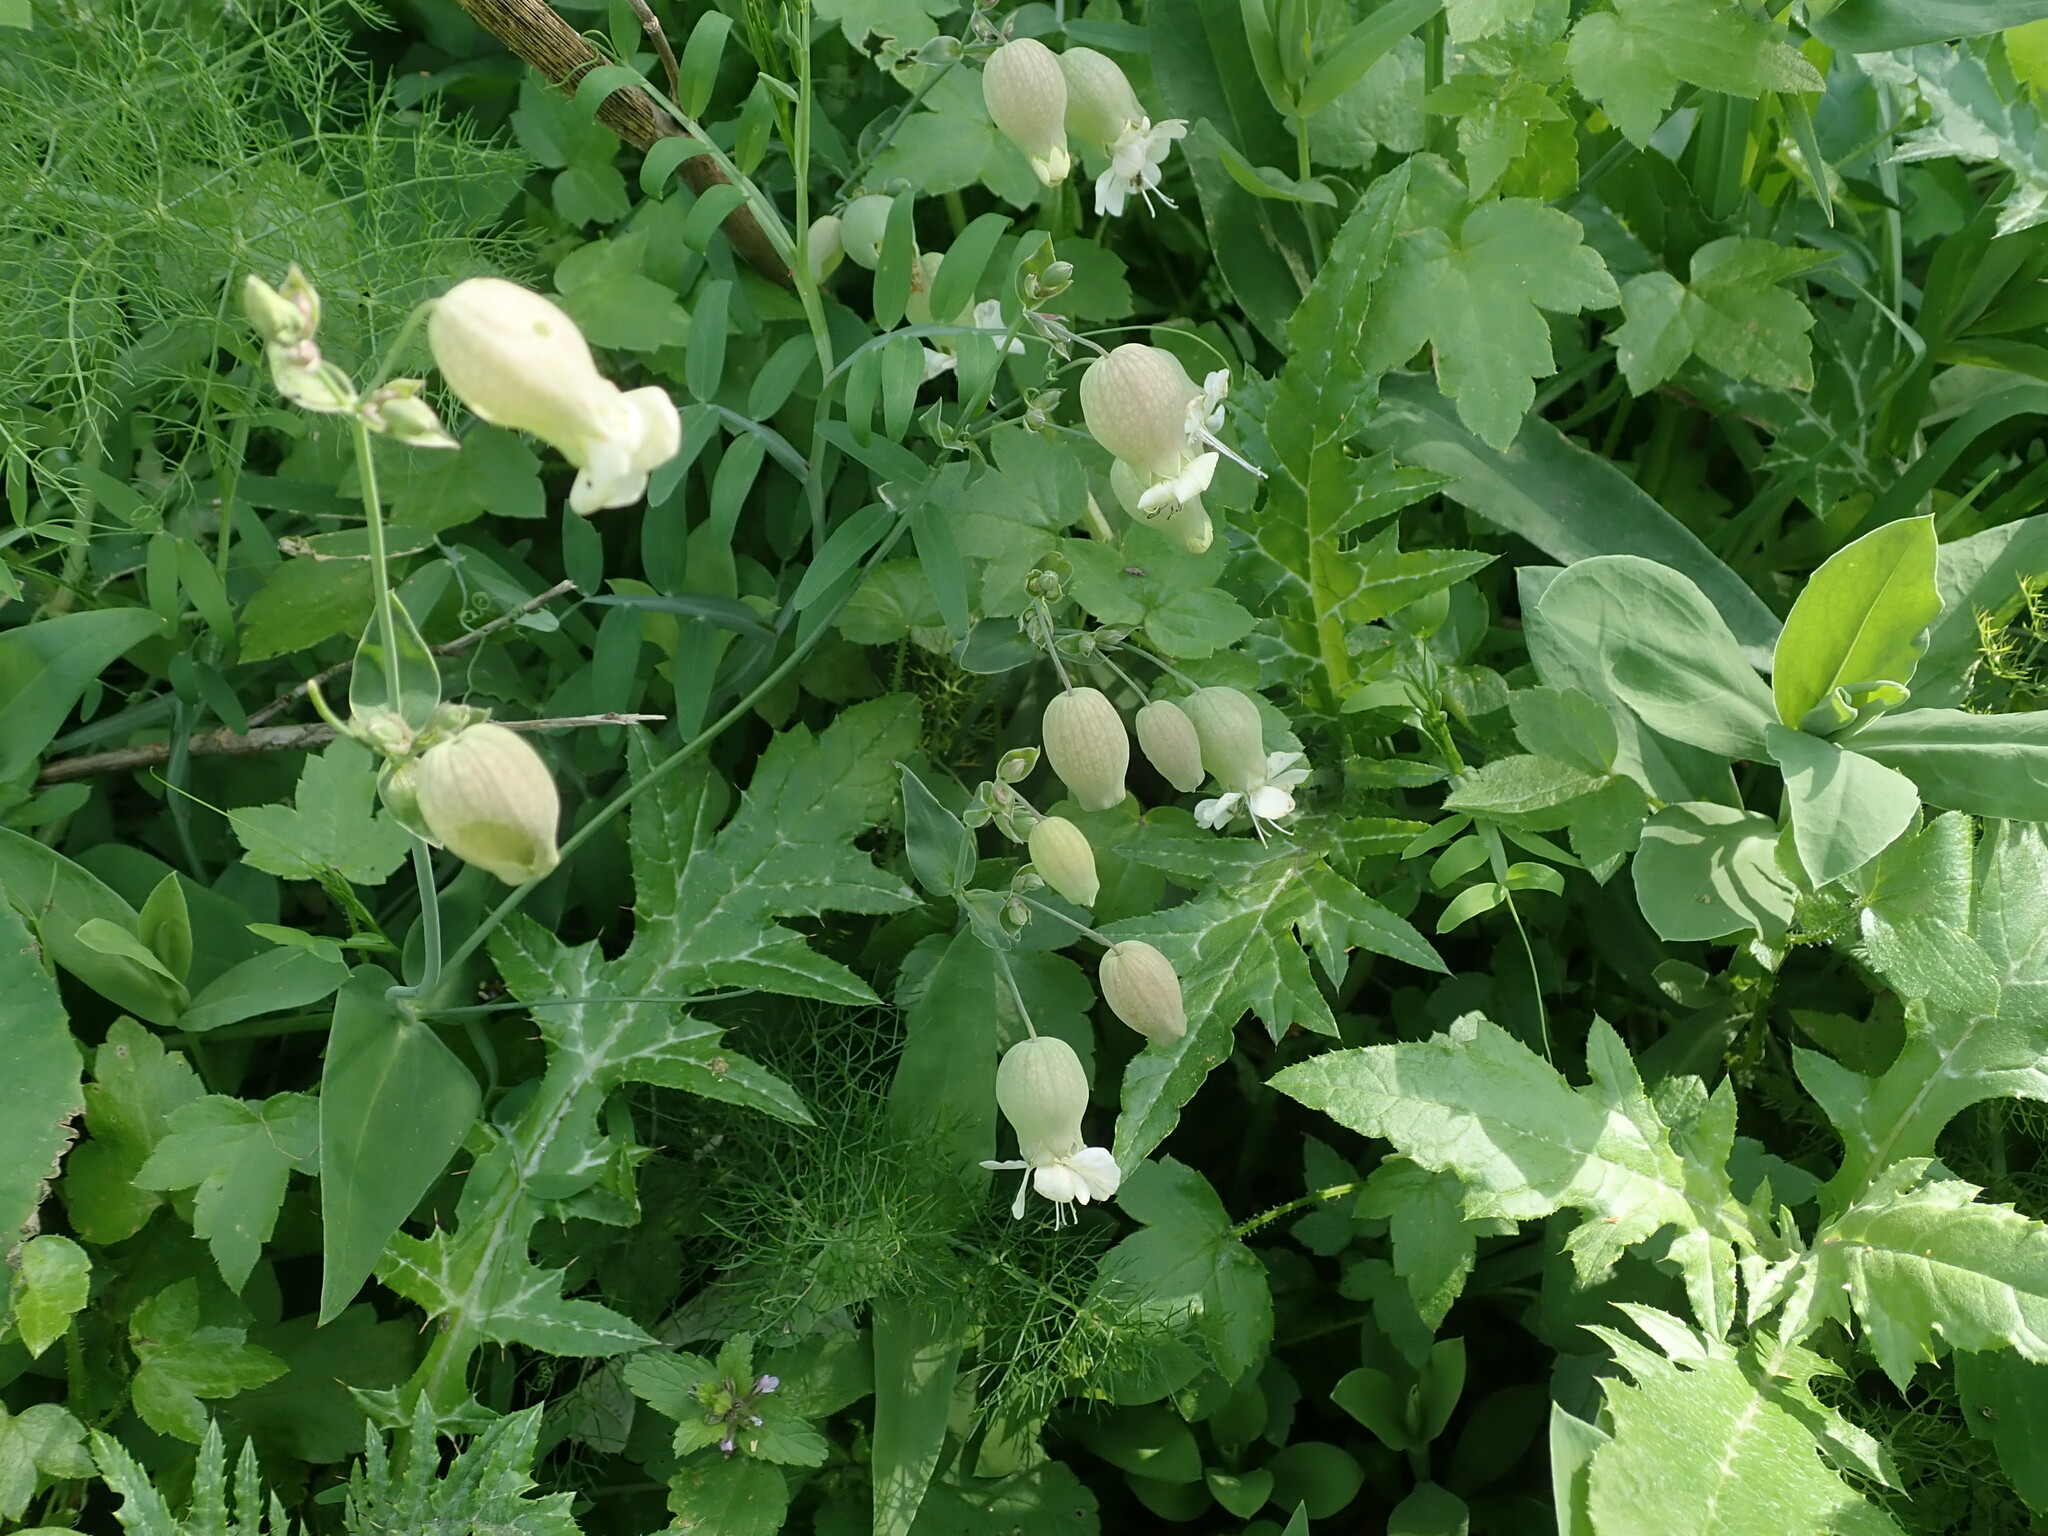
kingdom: Plantae
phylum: Tracheophyta
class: Magnoliopsida
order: Caryophyllales
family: Caryophyllaceae
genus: Silene
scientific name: Silene vulgaris
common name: Bladder campion
